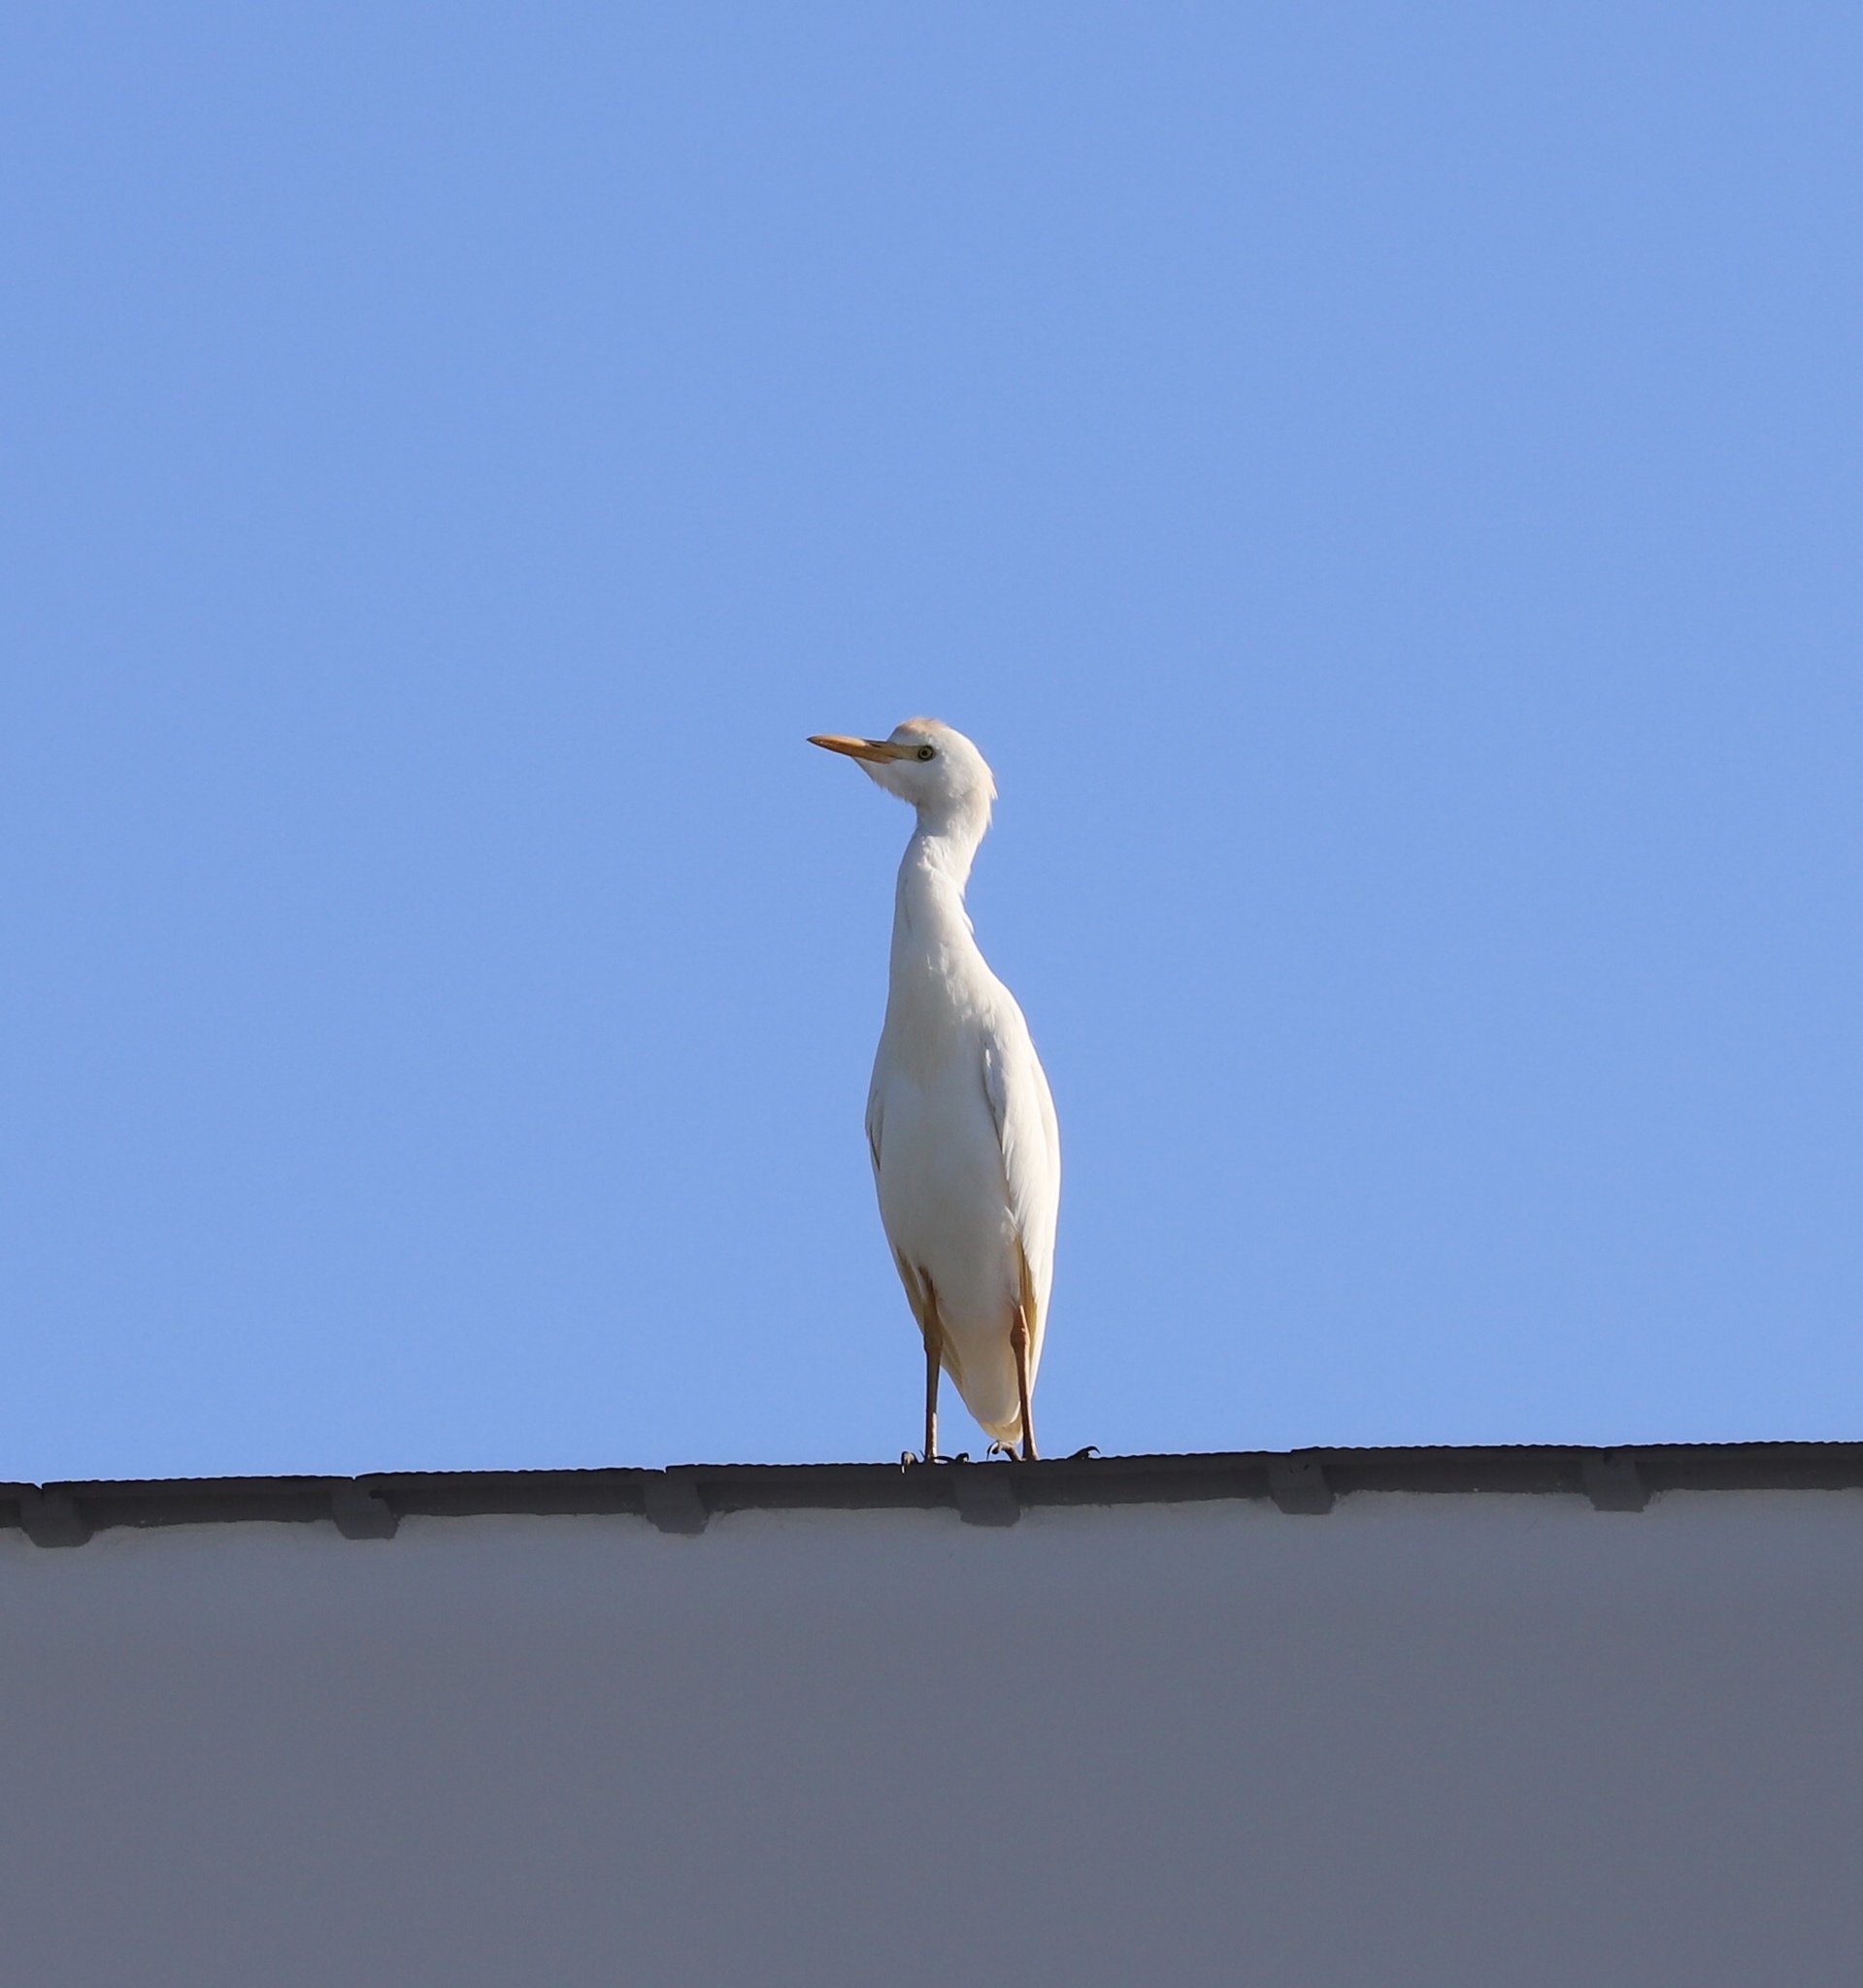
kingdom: Animalia
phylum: Chordata
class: Aves
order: Pelecaniformes
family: Ardeidae
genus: Bubulcus
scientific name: Bubulcus ibis
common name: Cattle egret
